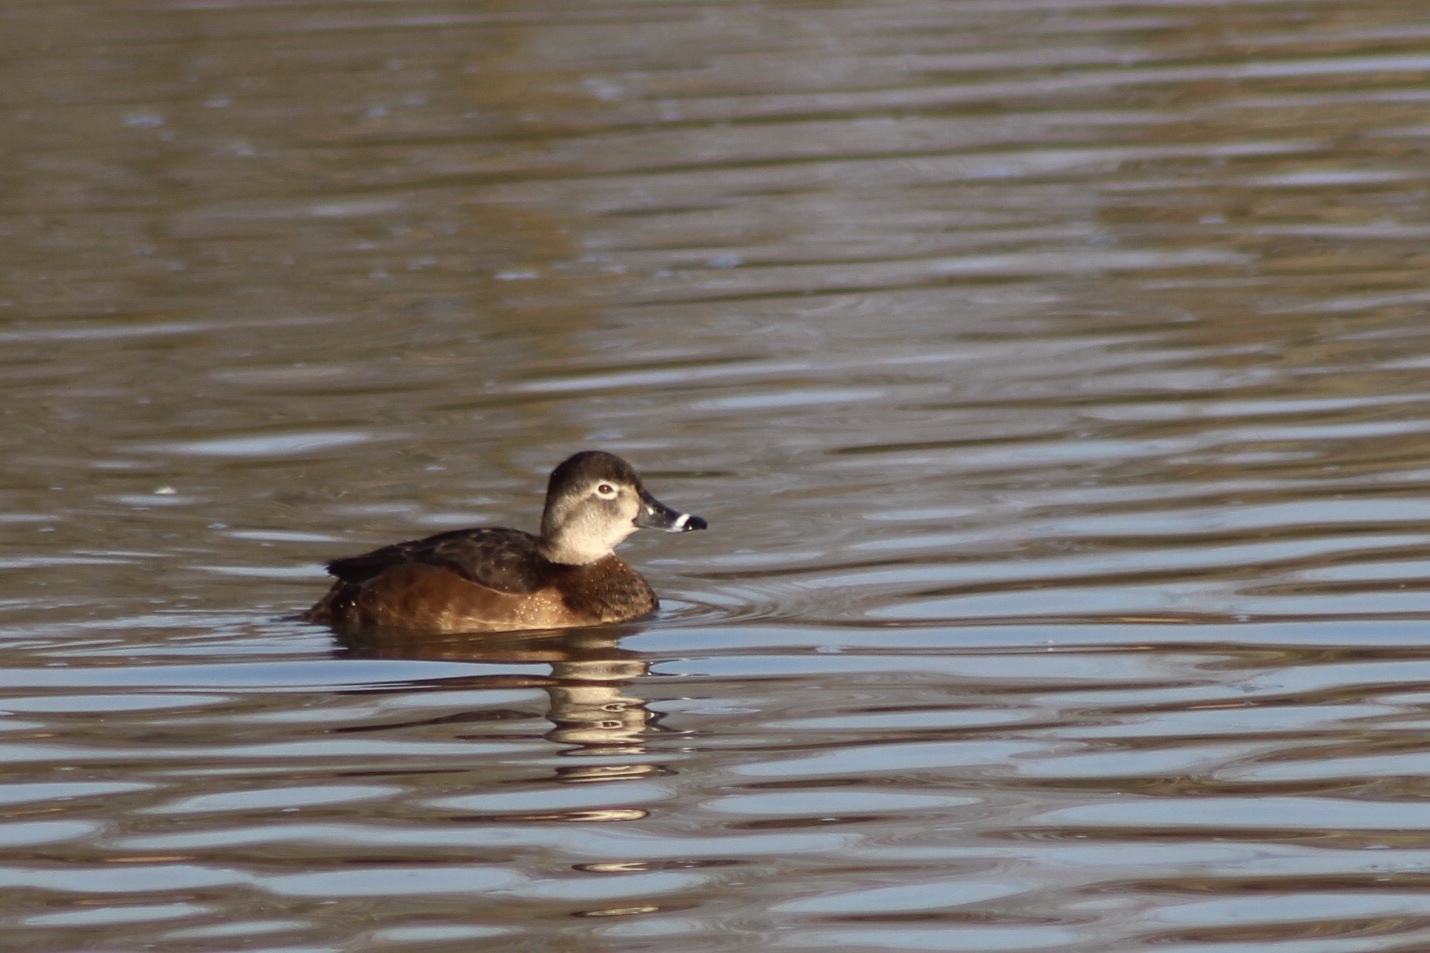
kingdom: Animalia
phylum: Chordata
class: Aves
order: Anseriformes
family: Anatidae
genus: Aythya
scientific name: Aythya collaris
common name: Ring-necked duck
